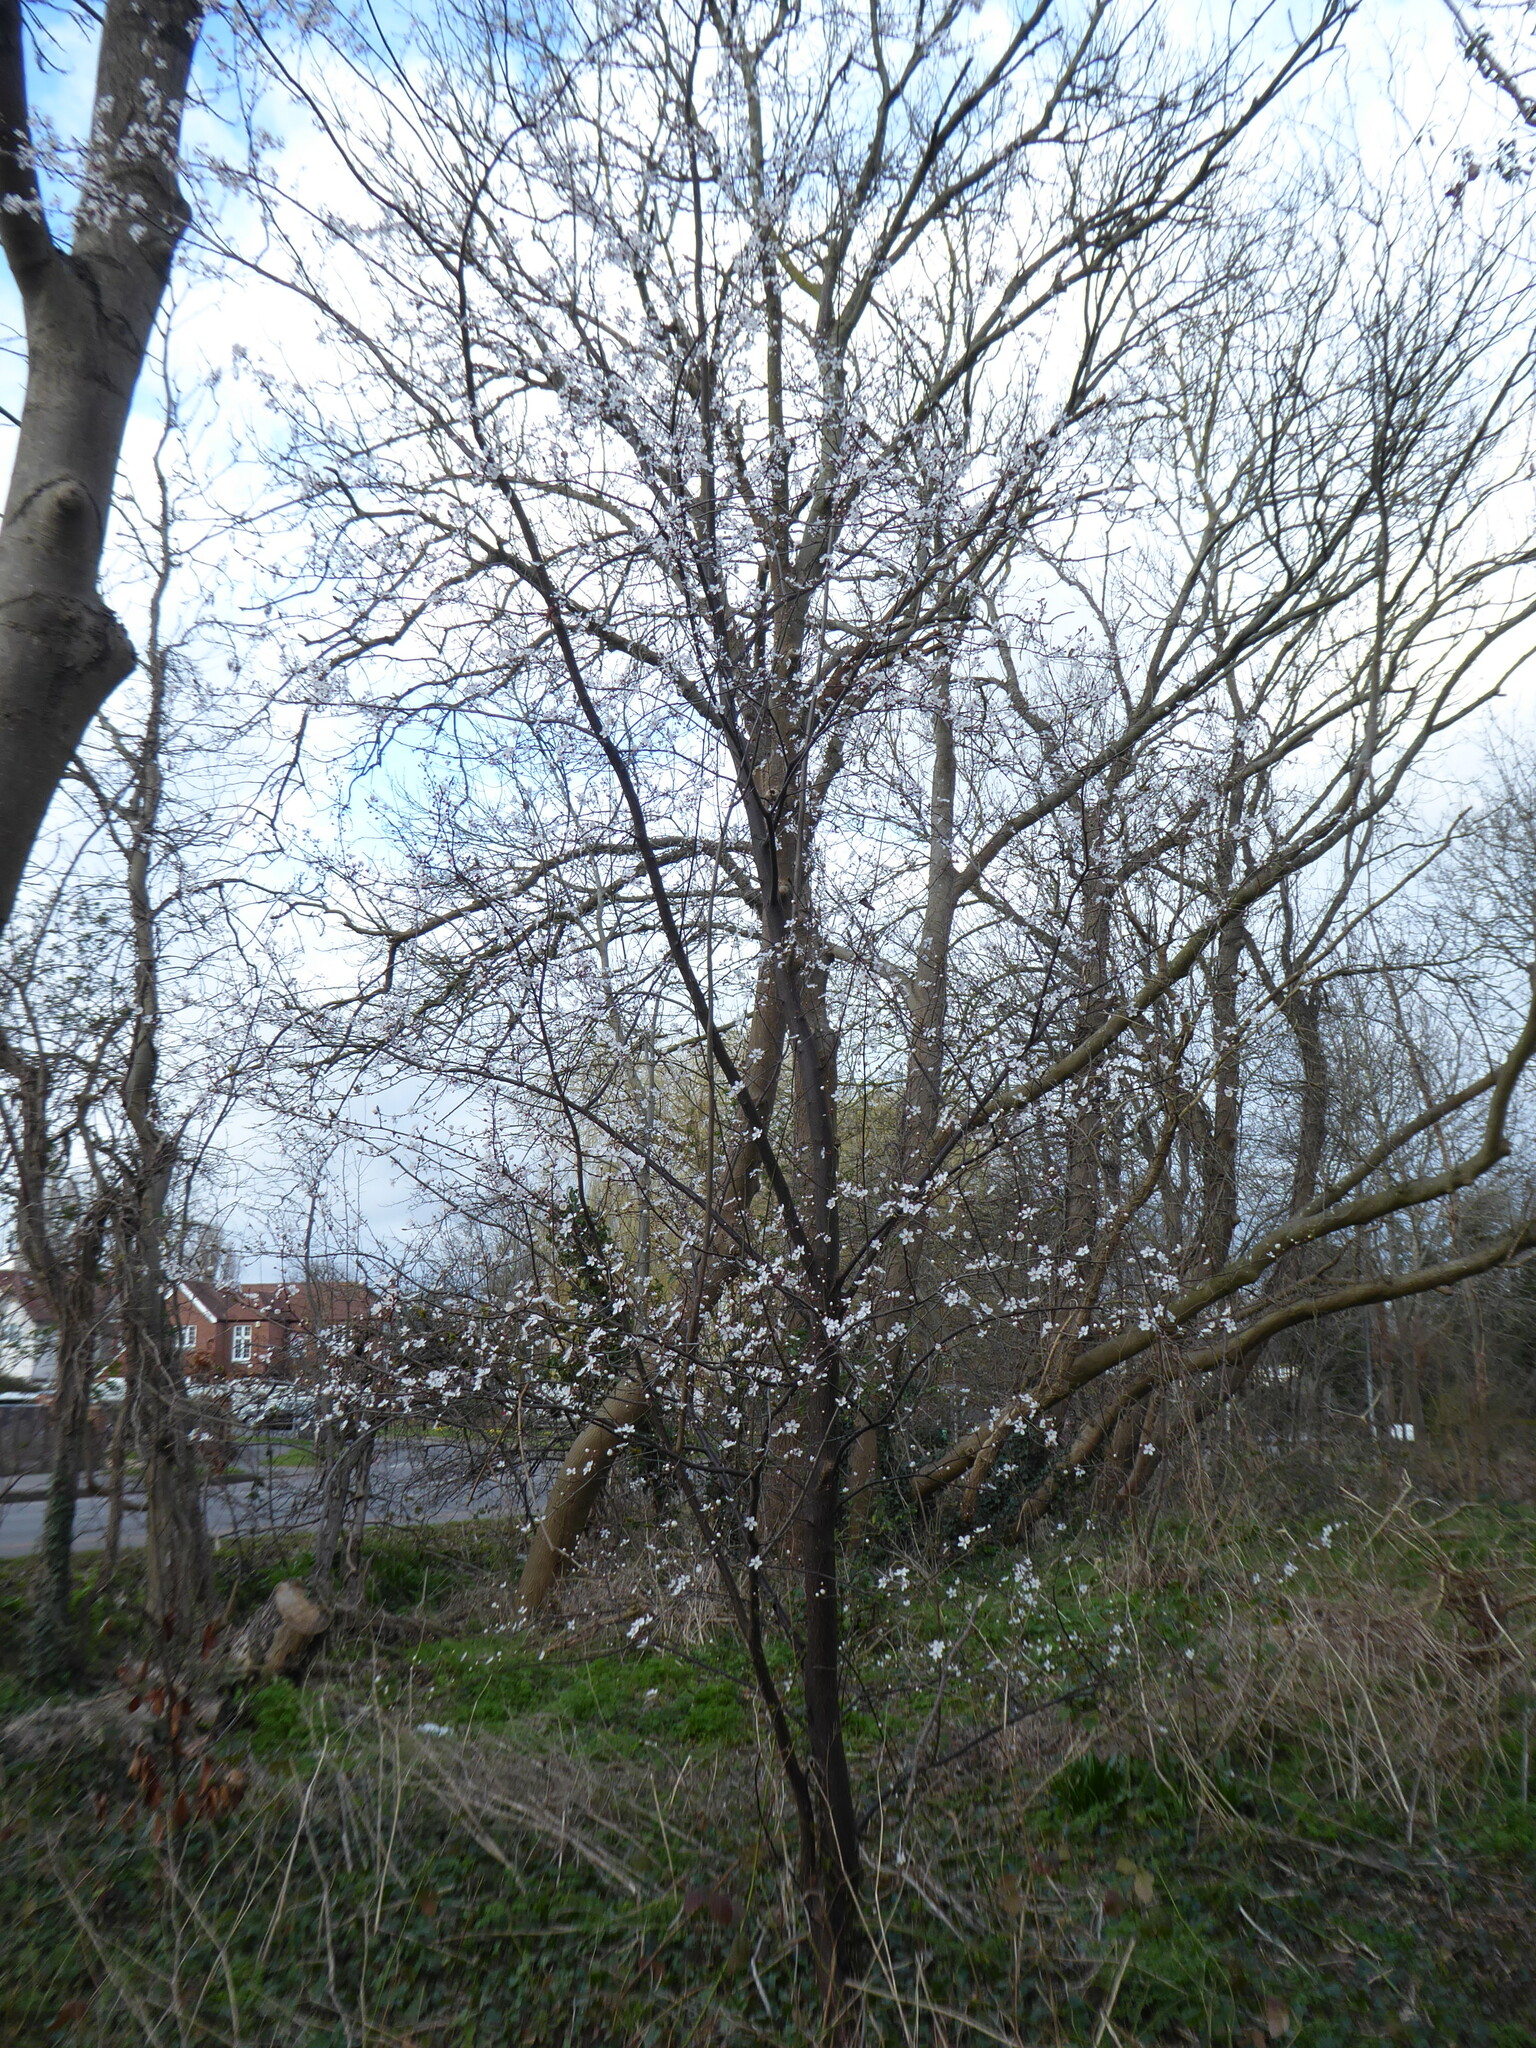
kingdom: Plantae
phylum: Tracheophyta
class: Magnoliopsida
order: Rosales
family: Rosaceae
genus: Prunus
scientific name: Prunus cerasifera
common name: Cherry plum
